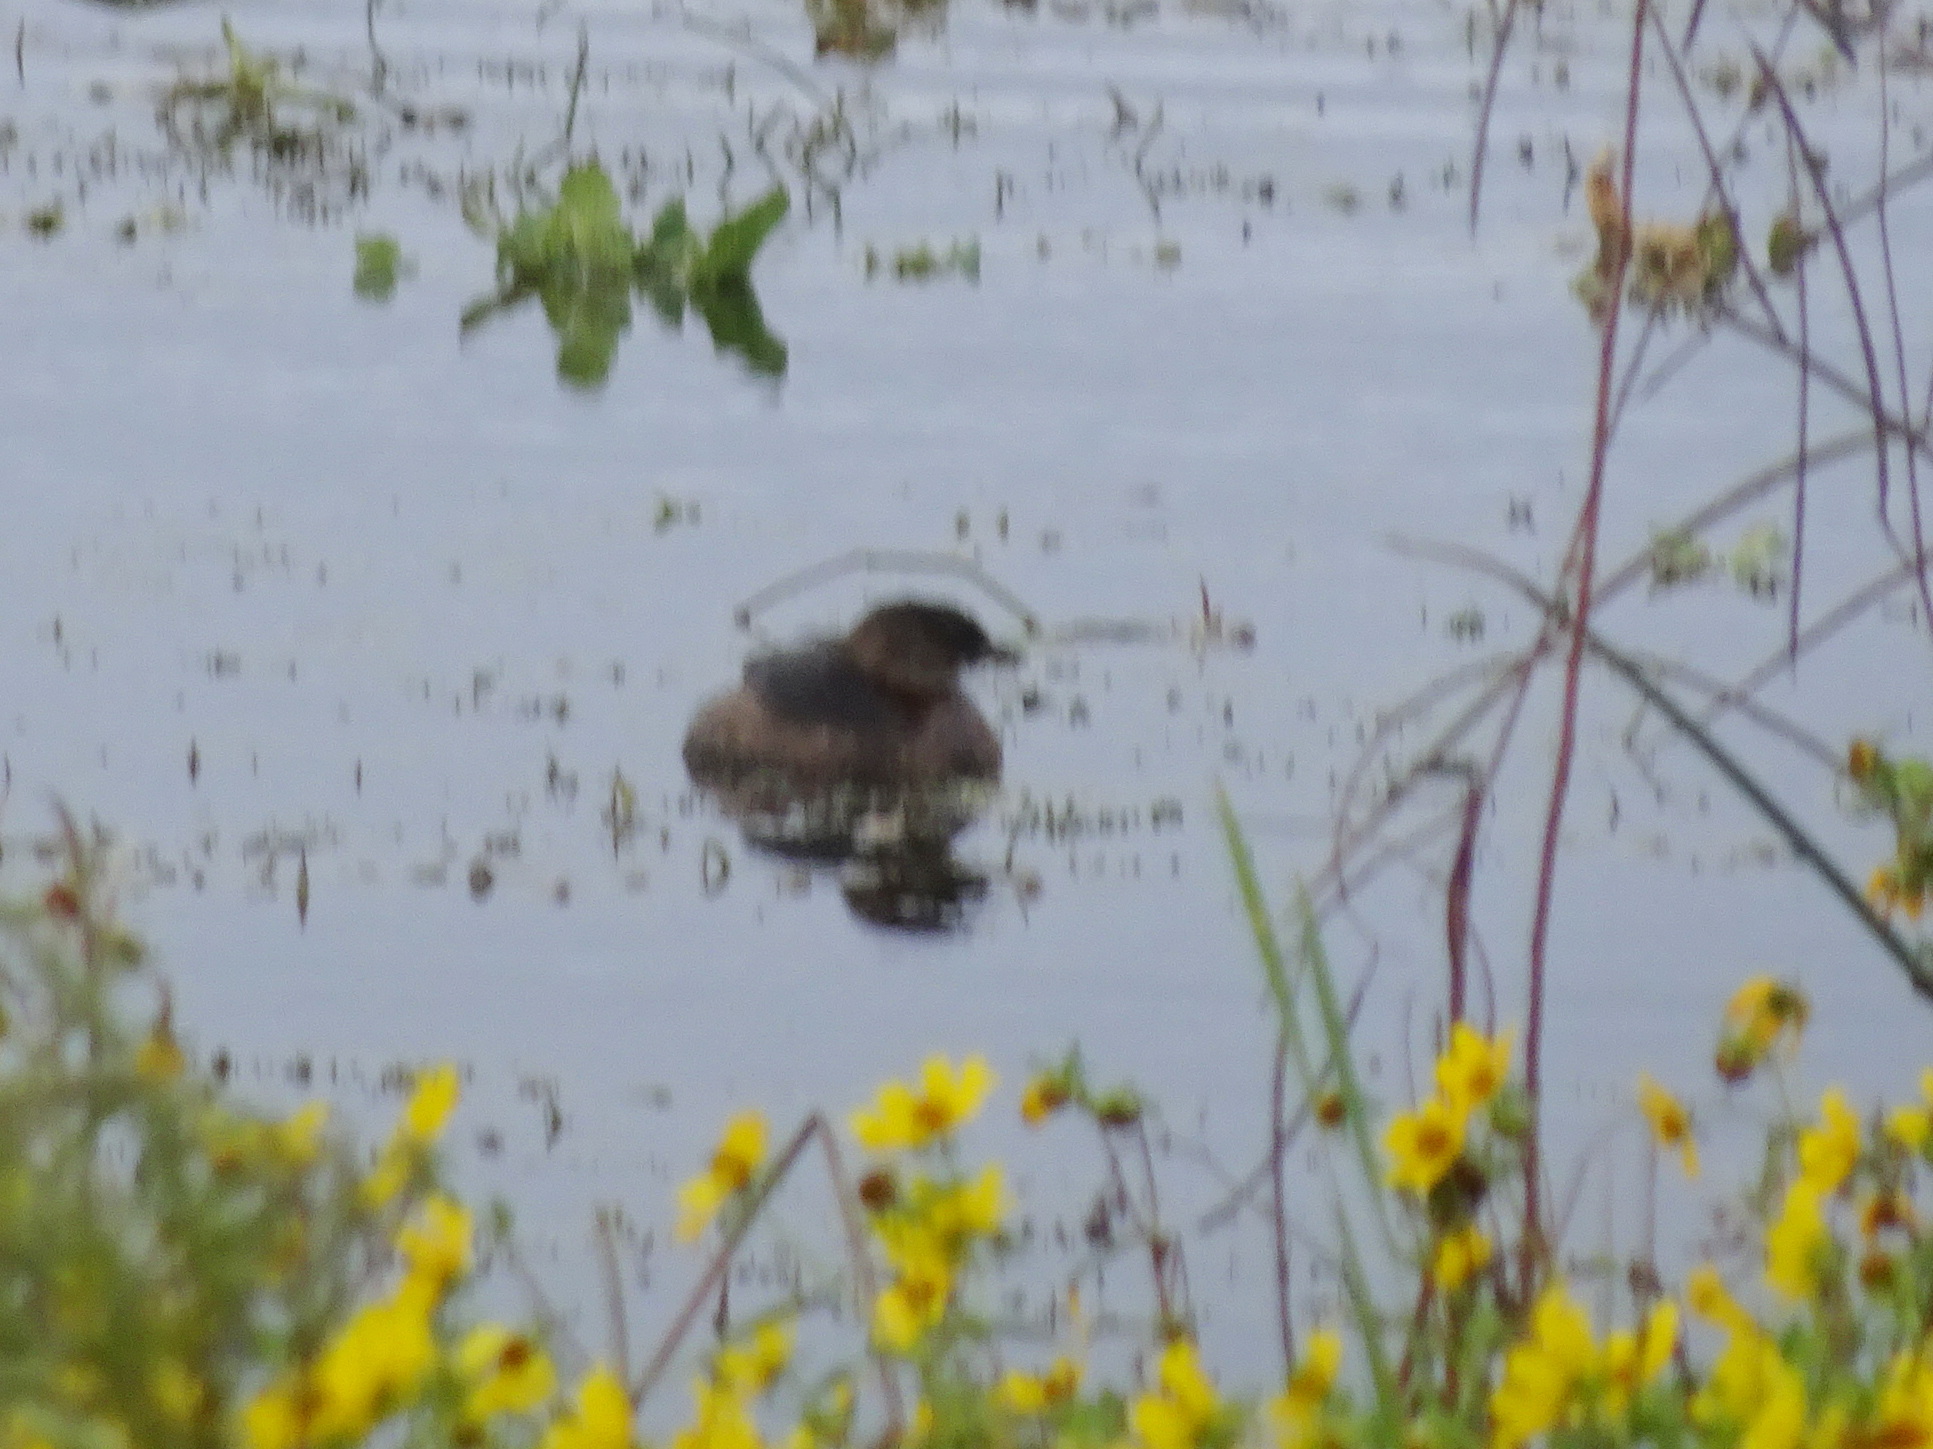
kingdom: Animalia
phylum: Chordata
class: Aves
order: Podicipediformes
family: Podicipedidae
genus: Podilymbus
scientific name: Podilymbus podiceps
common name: Pied-billed grebe
